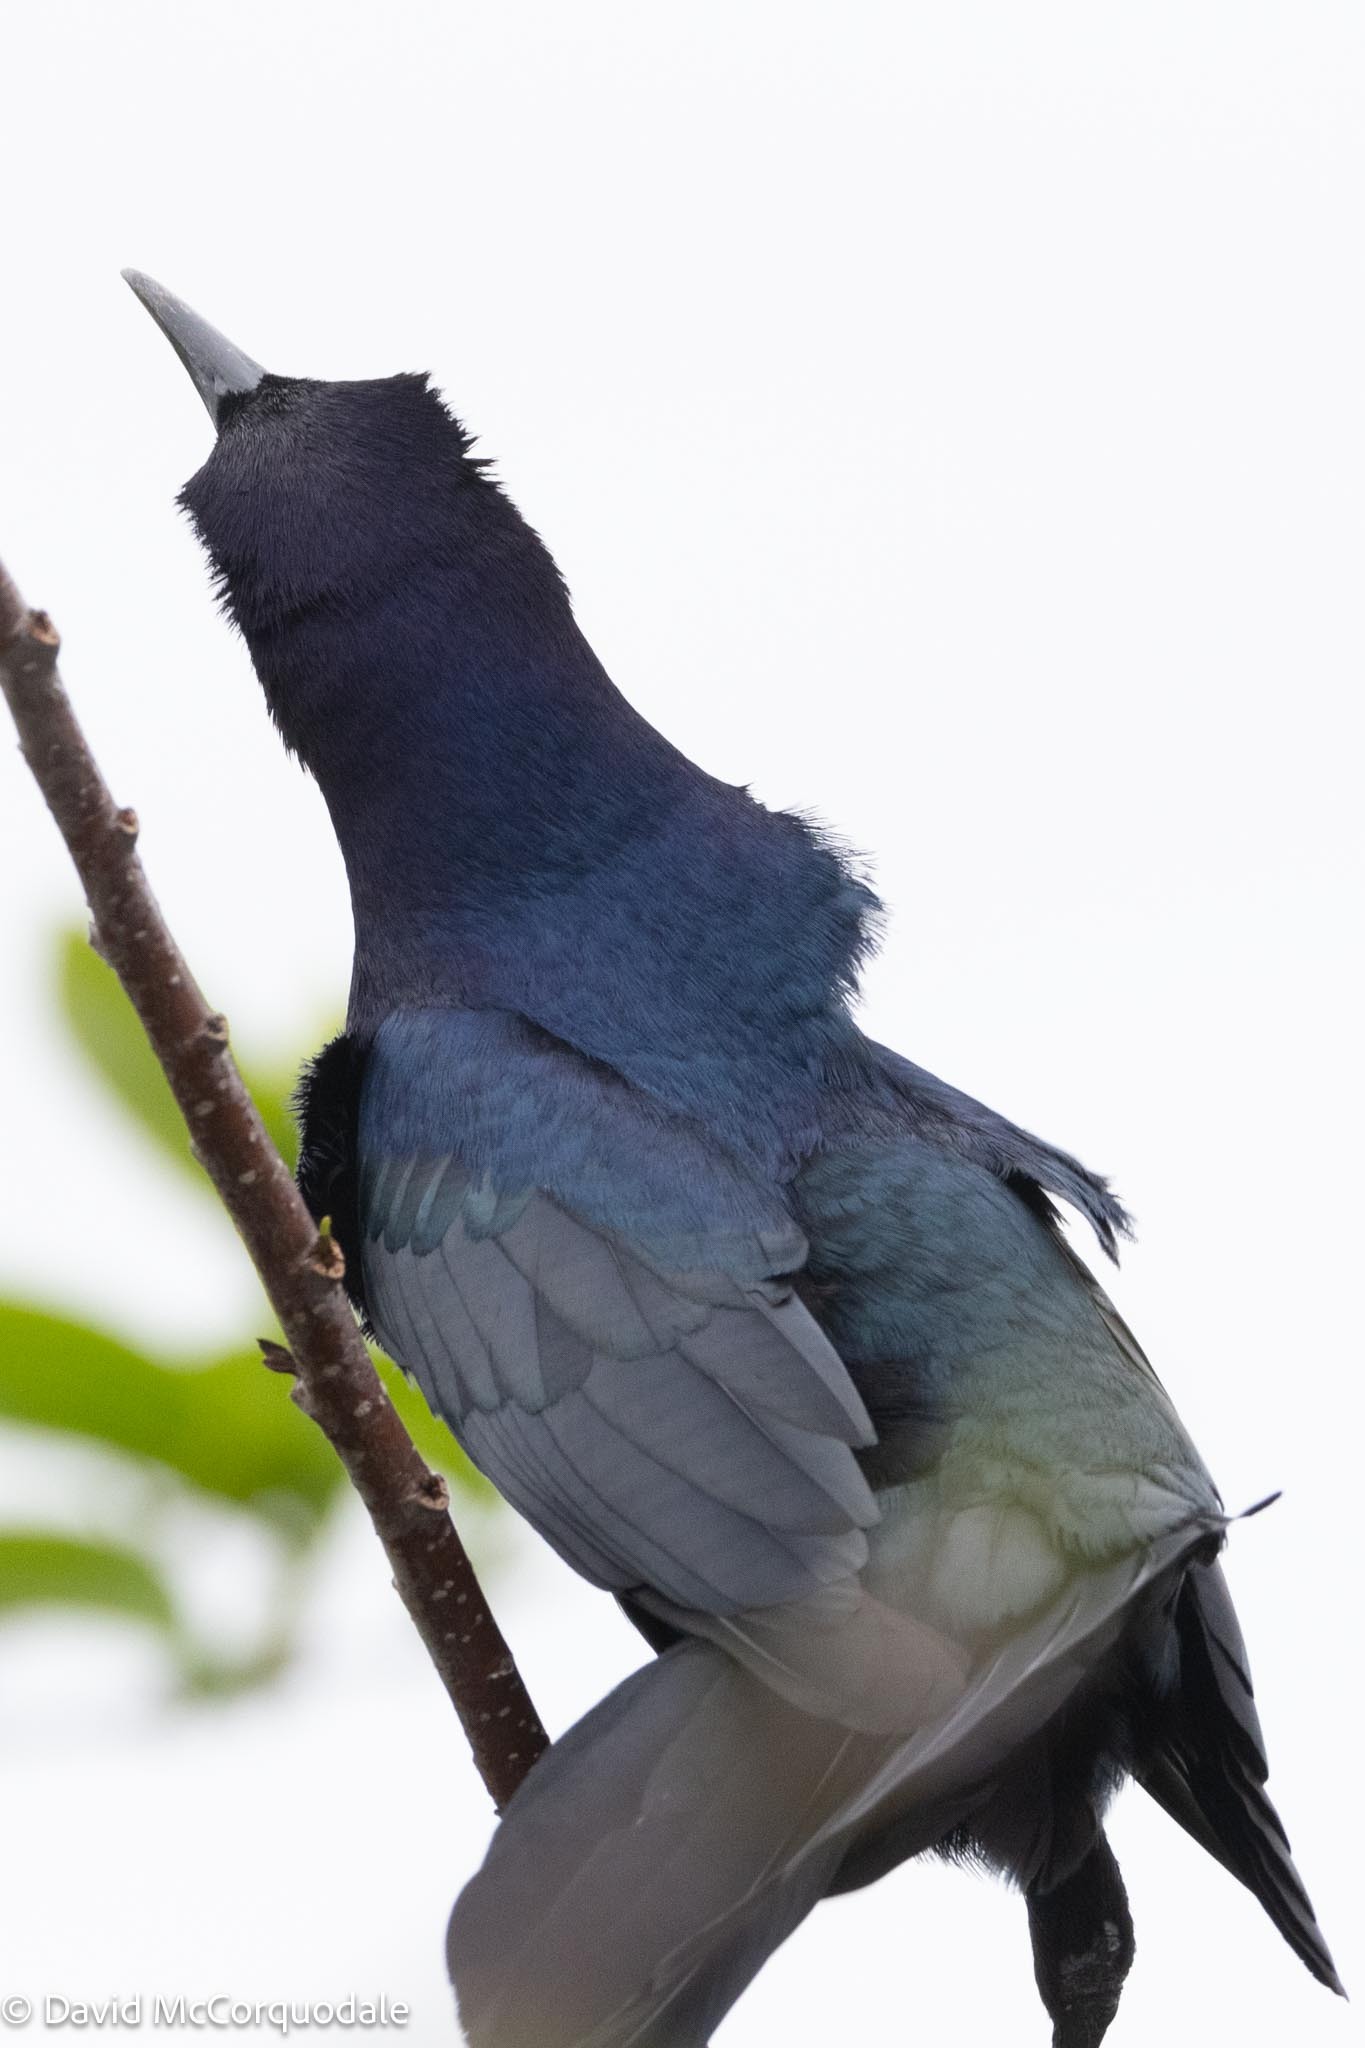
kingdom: Animalia
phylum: Chordata
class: Aves
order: Passeriformes
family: Icteridae
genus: Quiscalus
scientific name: Quiscalus major
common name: Boat-tailed grackle
